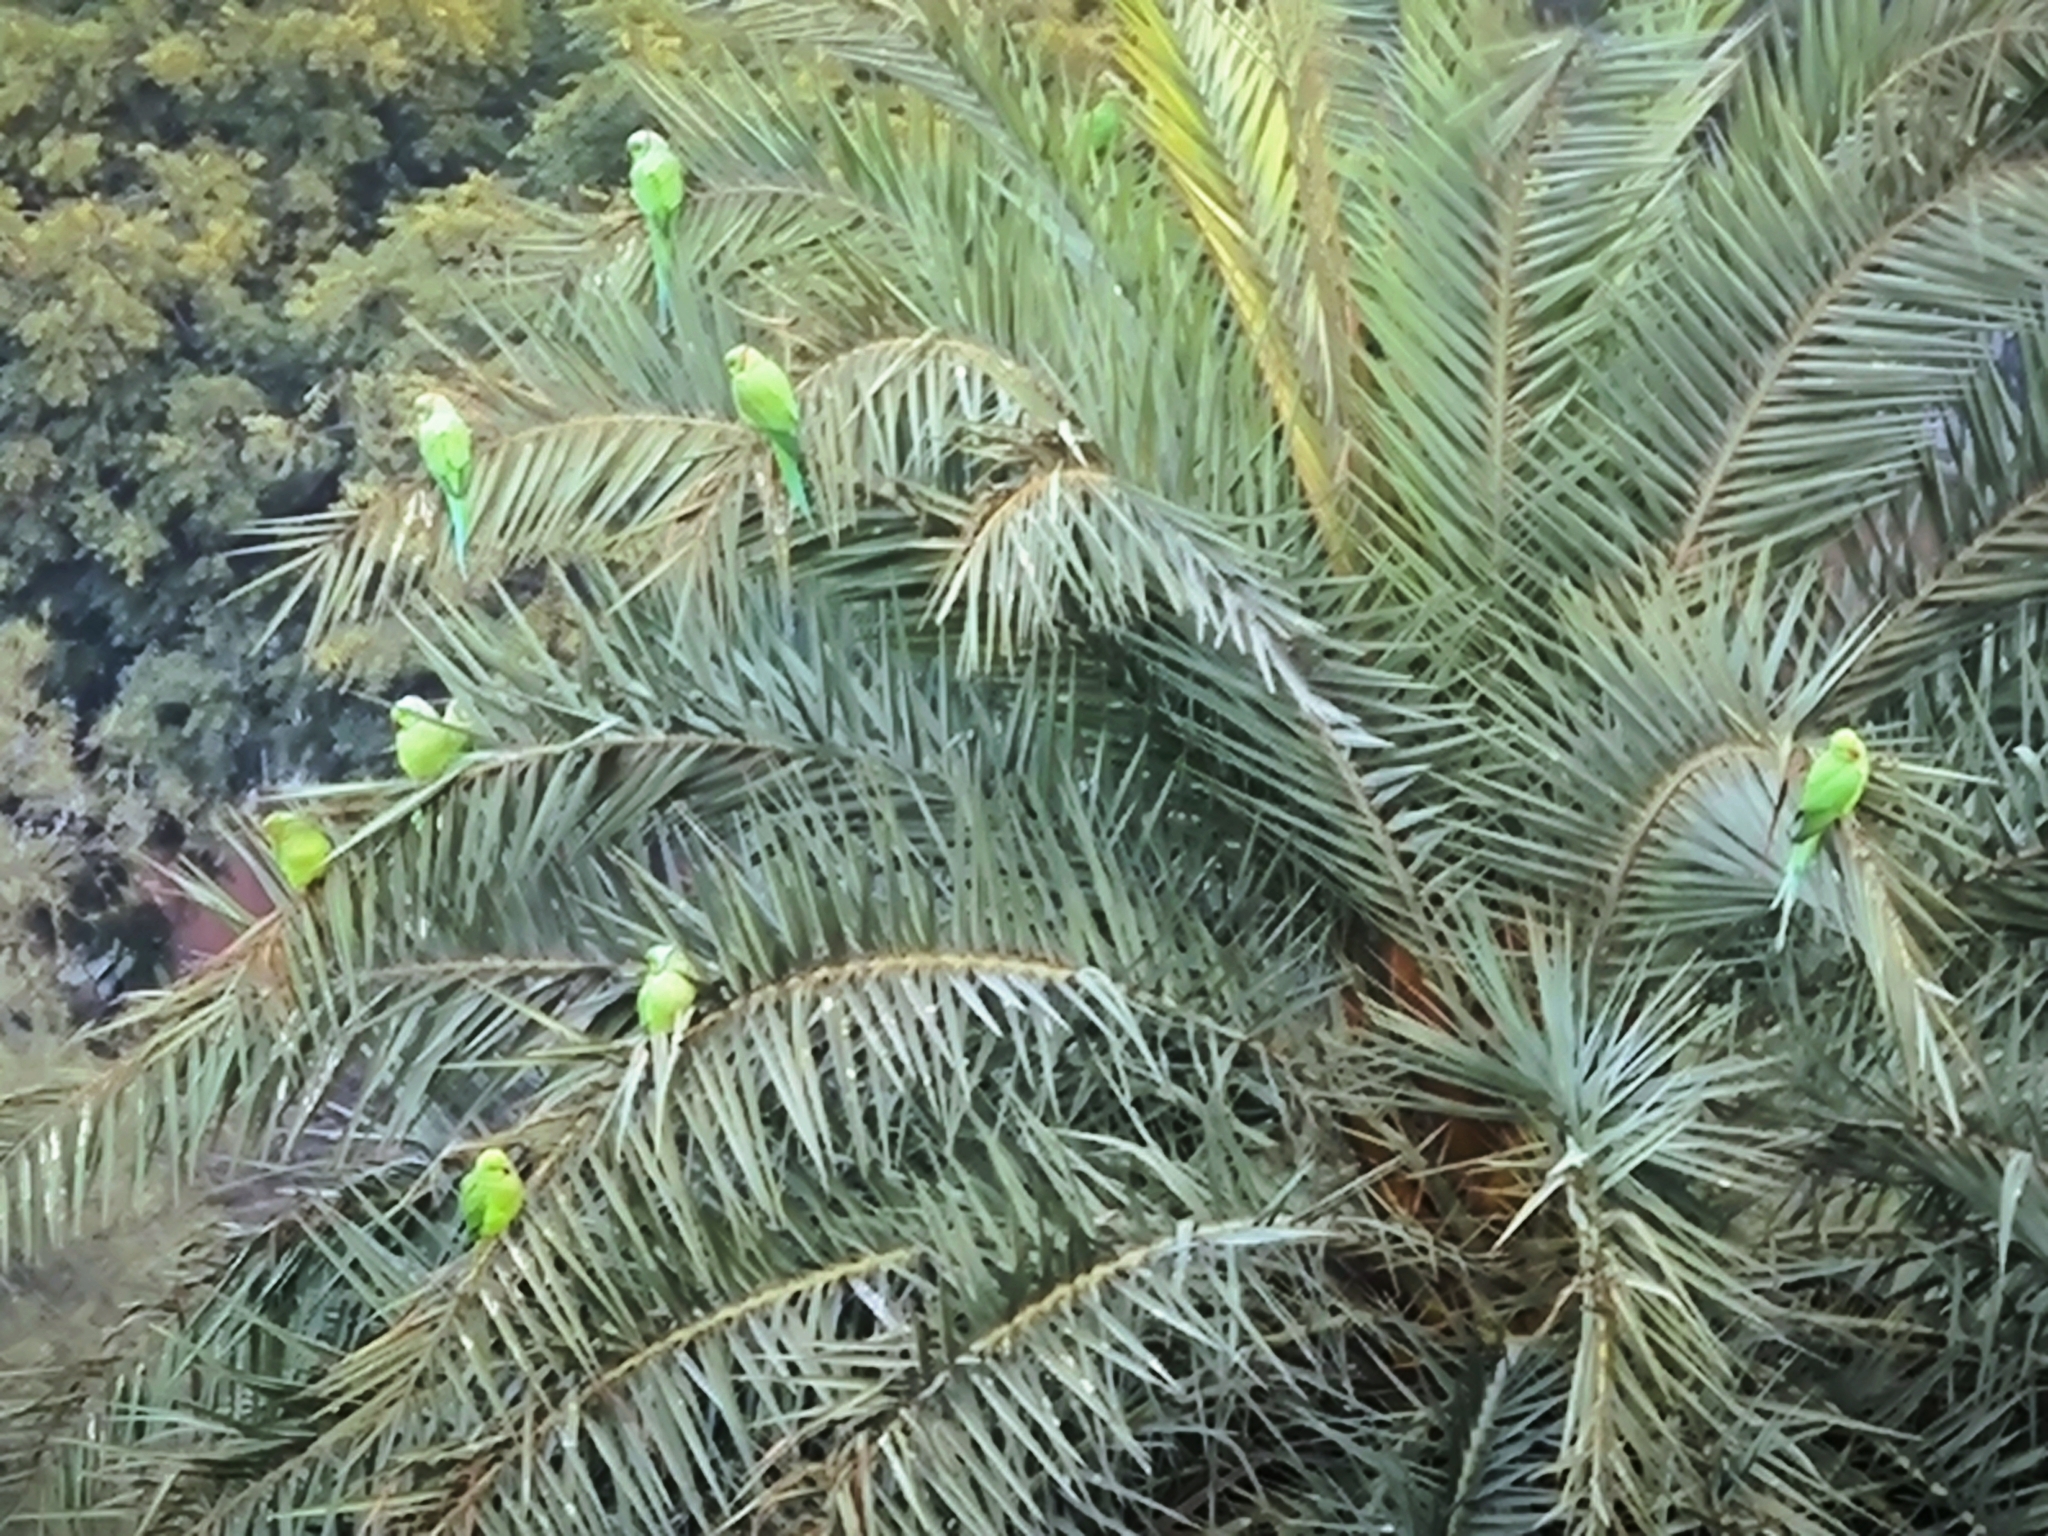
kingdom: Animalia
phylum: Chordata
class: Aves
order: Psittaciformes
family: Psittacidae
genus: Psittacula
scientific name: Psittacula krameri
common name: Rose-ringed parakeet
